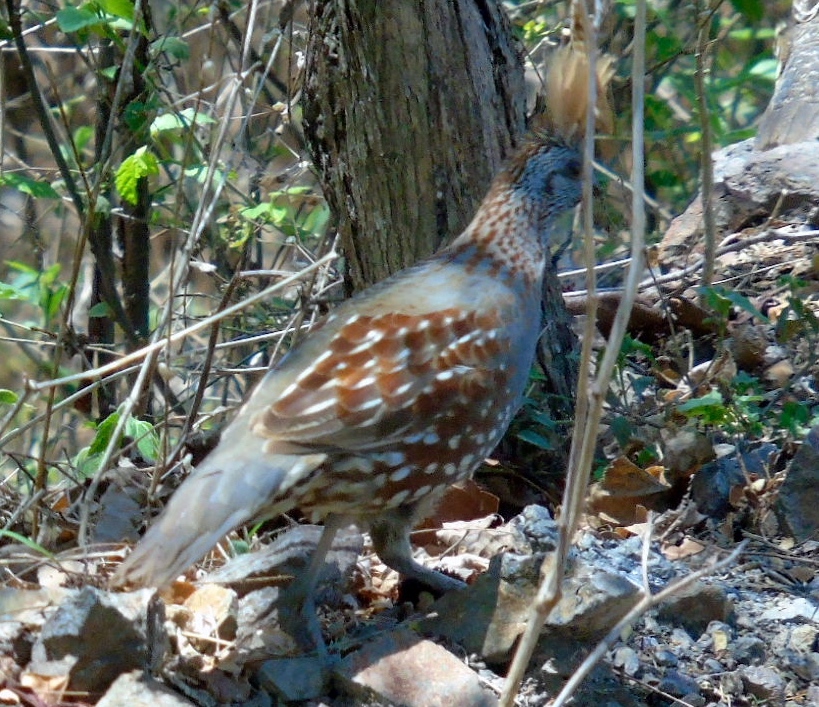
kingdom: Animalia
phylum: Chordata
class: Aves
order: Galliformes
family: Odontophoridae
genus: Callipepla
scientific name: Callipepla douglasii
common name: Elegant quail
